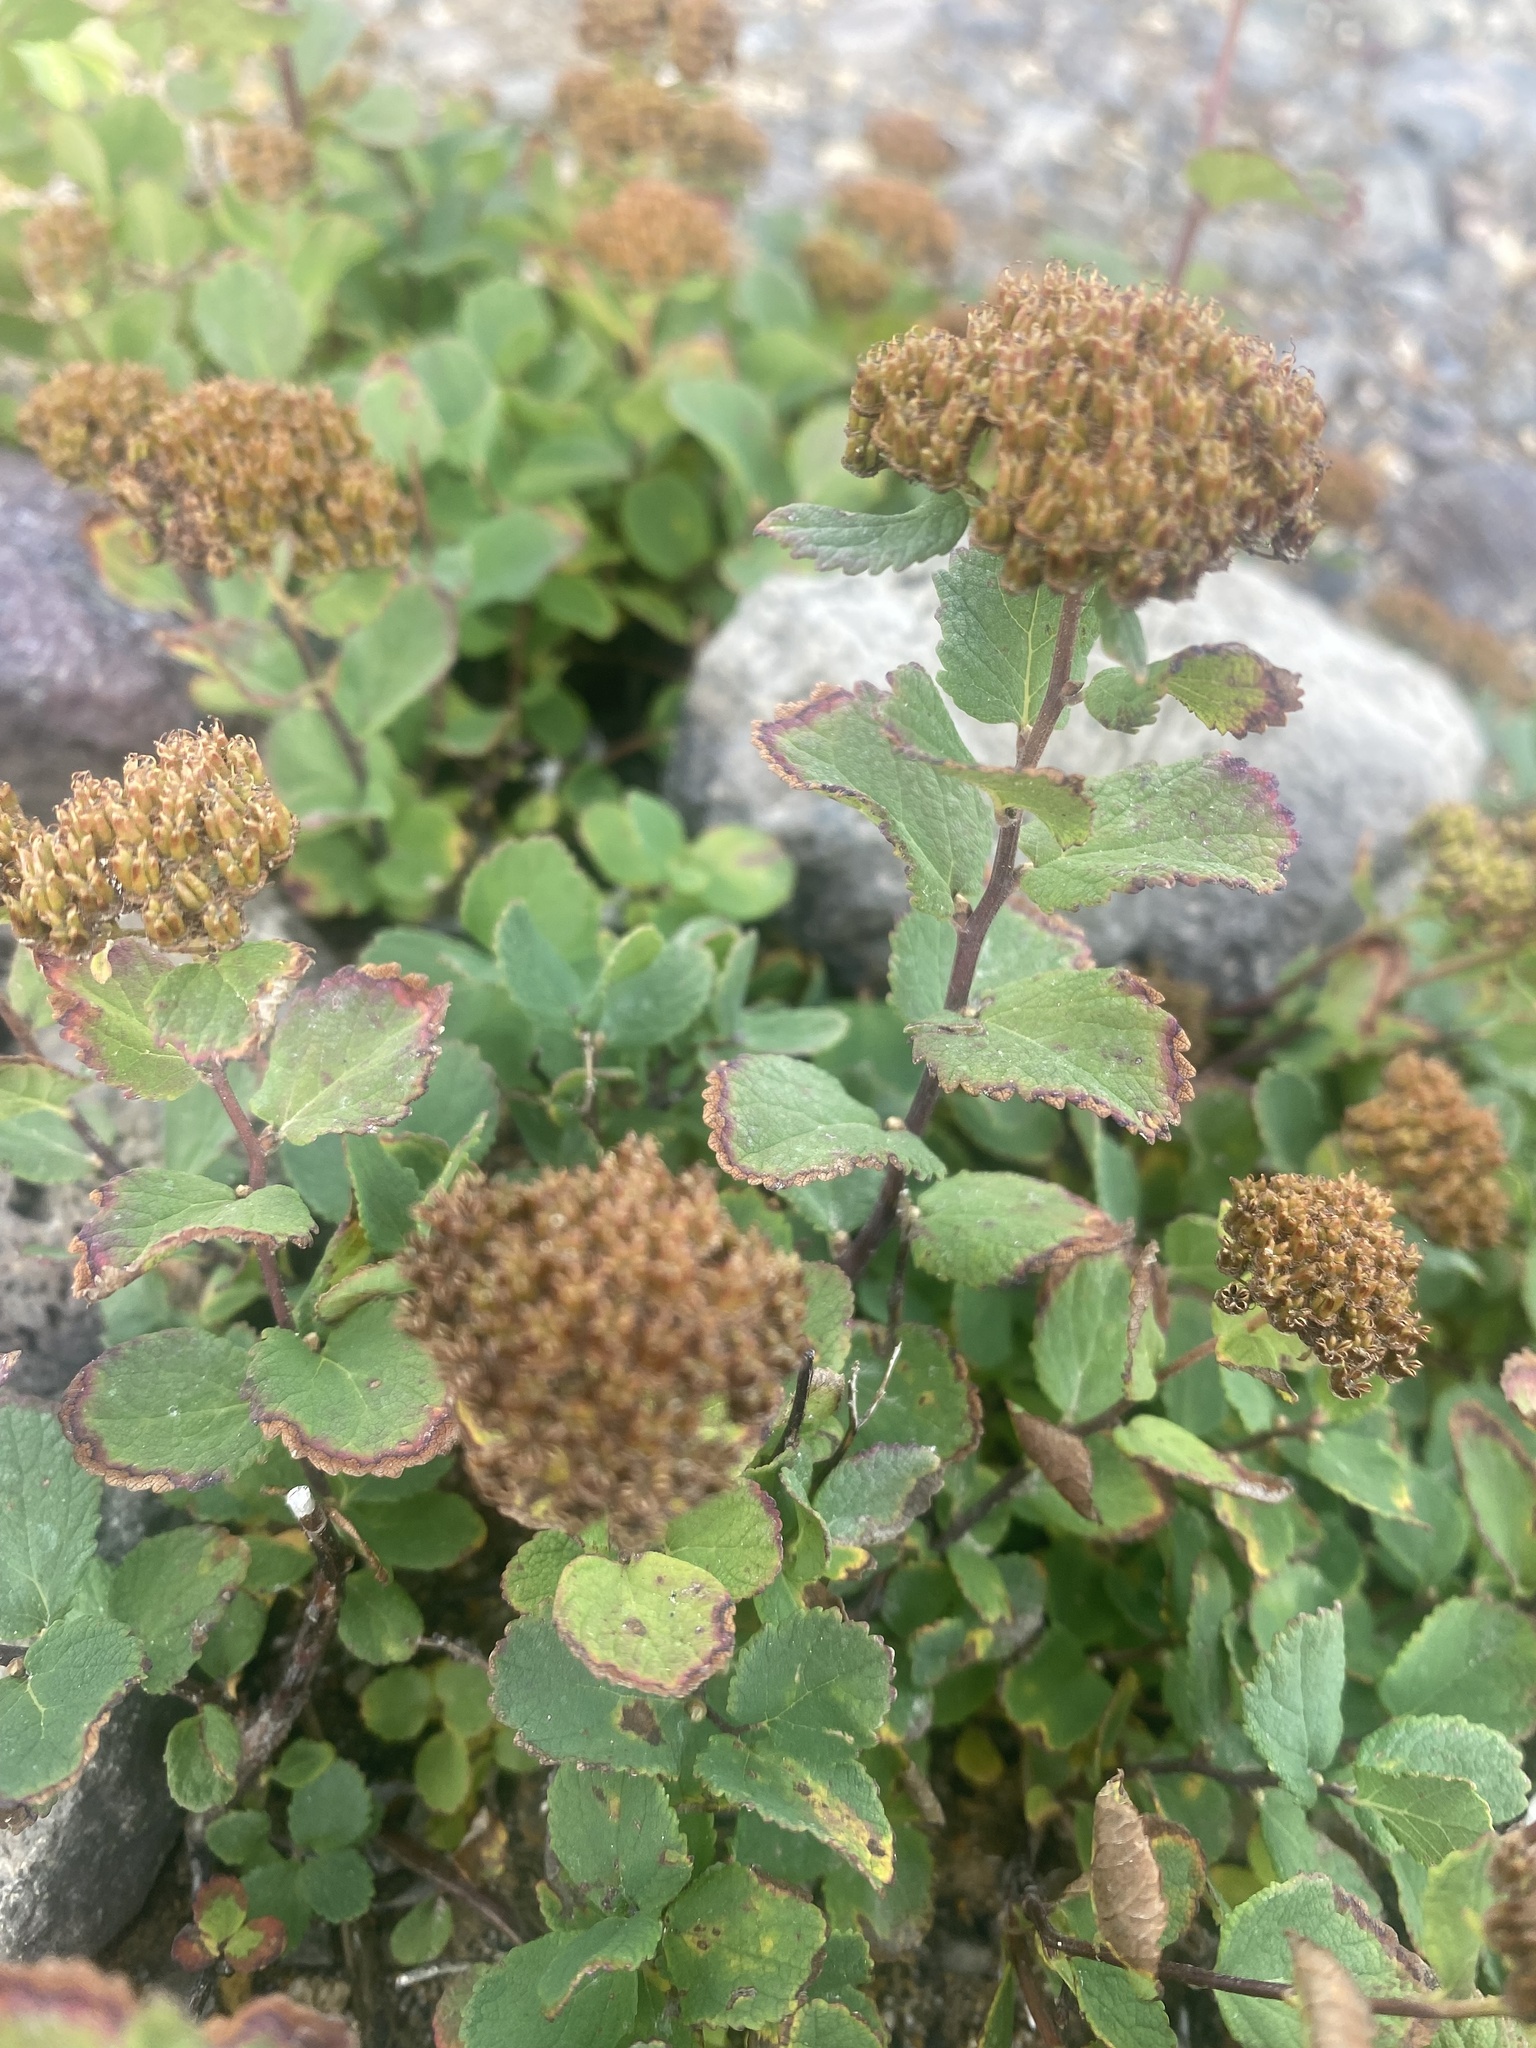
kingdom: Plantae
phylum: Tracheophyta
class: Magnoliopsida
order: Rosales
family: Rosaceae
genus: Spiraea
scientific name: Spiraea betulifolia
